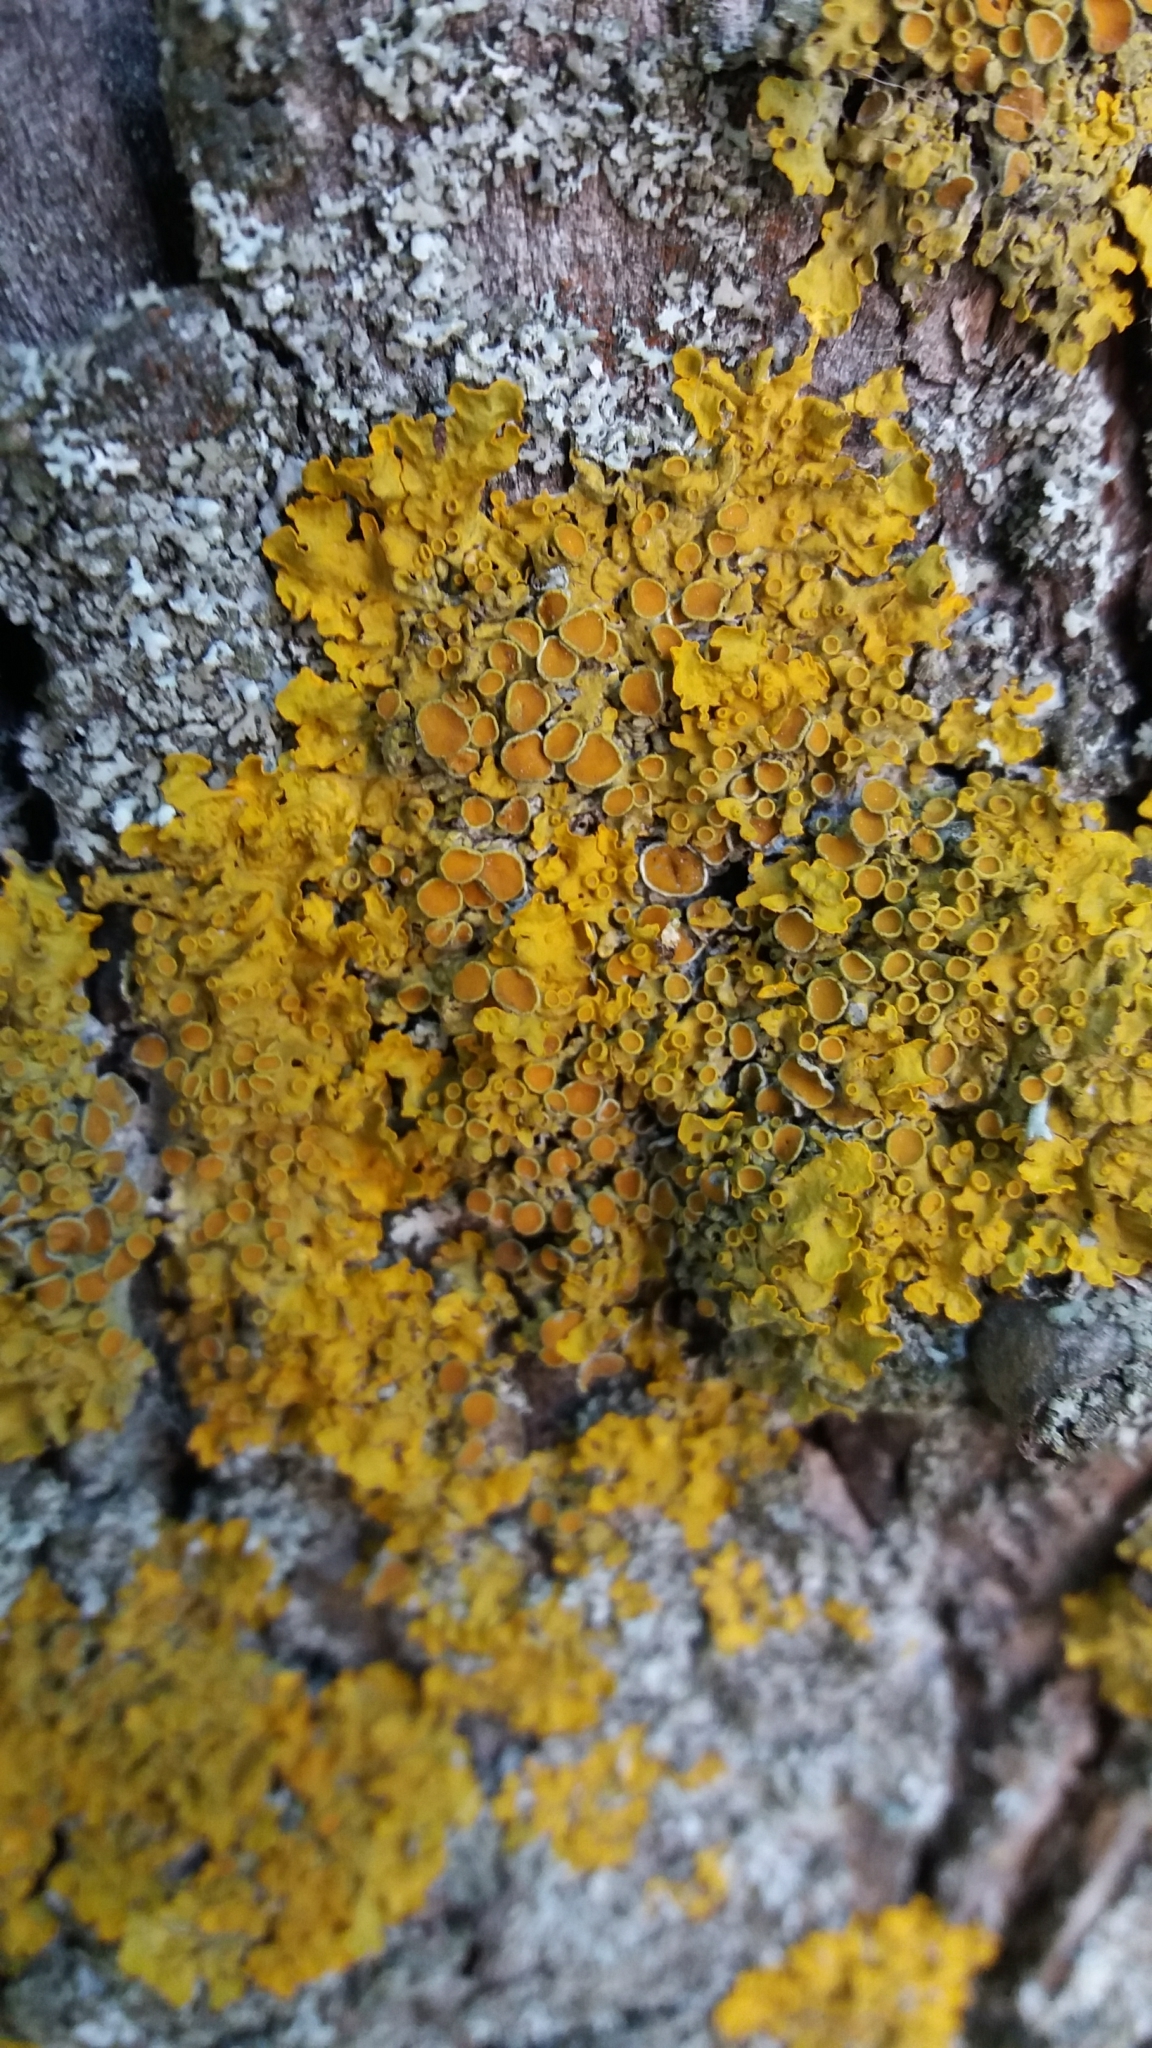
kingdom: Fungi
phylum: Ascomycota
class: Lecanoromycetes
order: Teloschistales
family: Teloschistaceae
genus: Xanthoria
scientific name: Xanthoria parietina
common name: Common orange lichen
